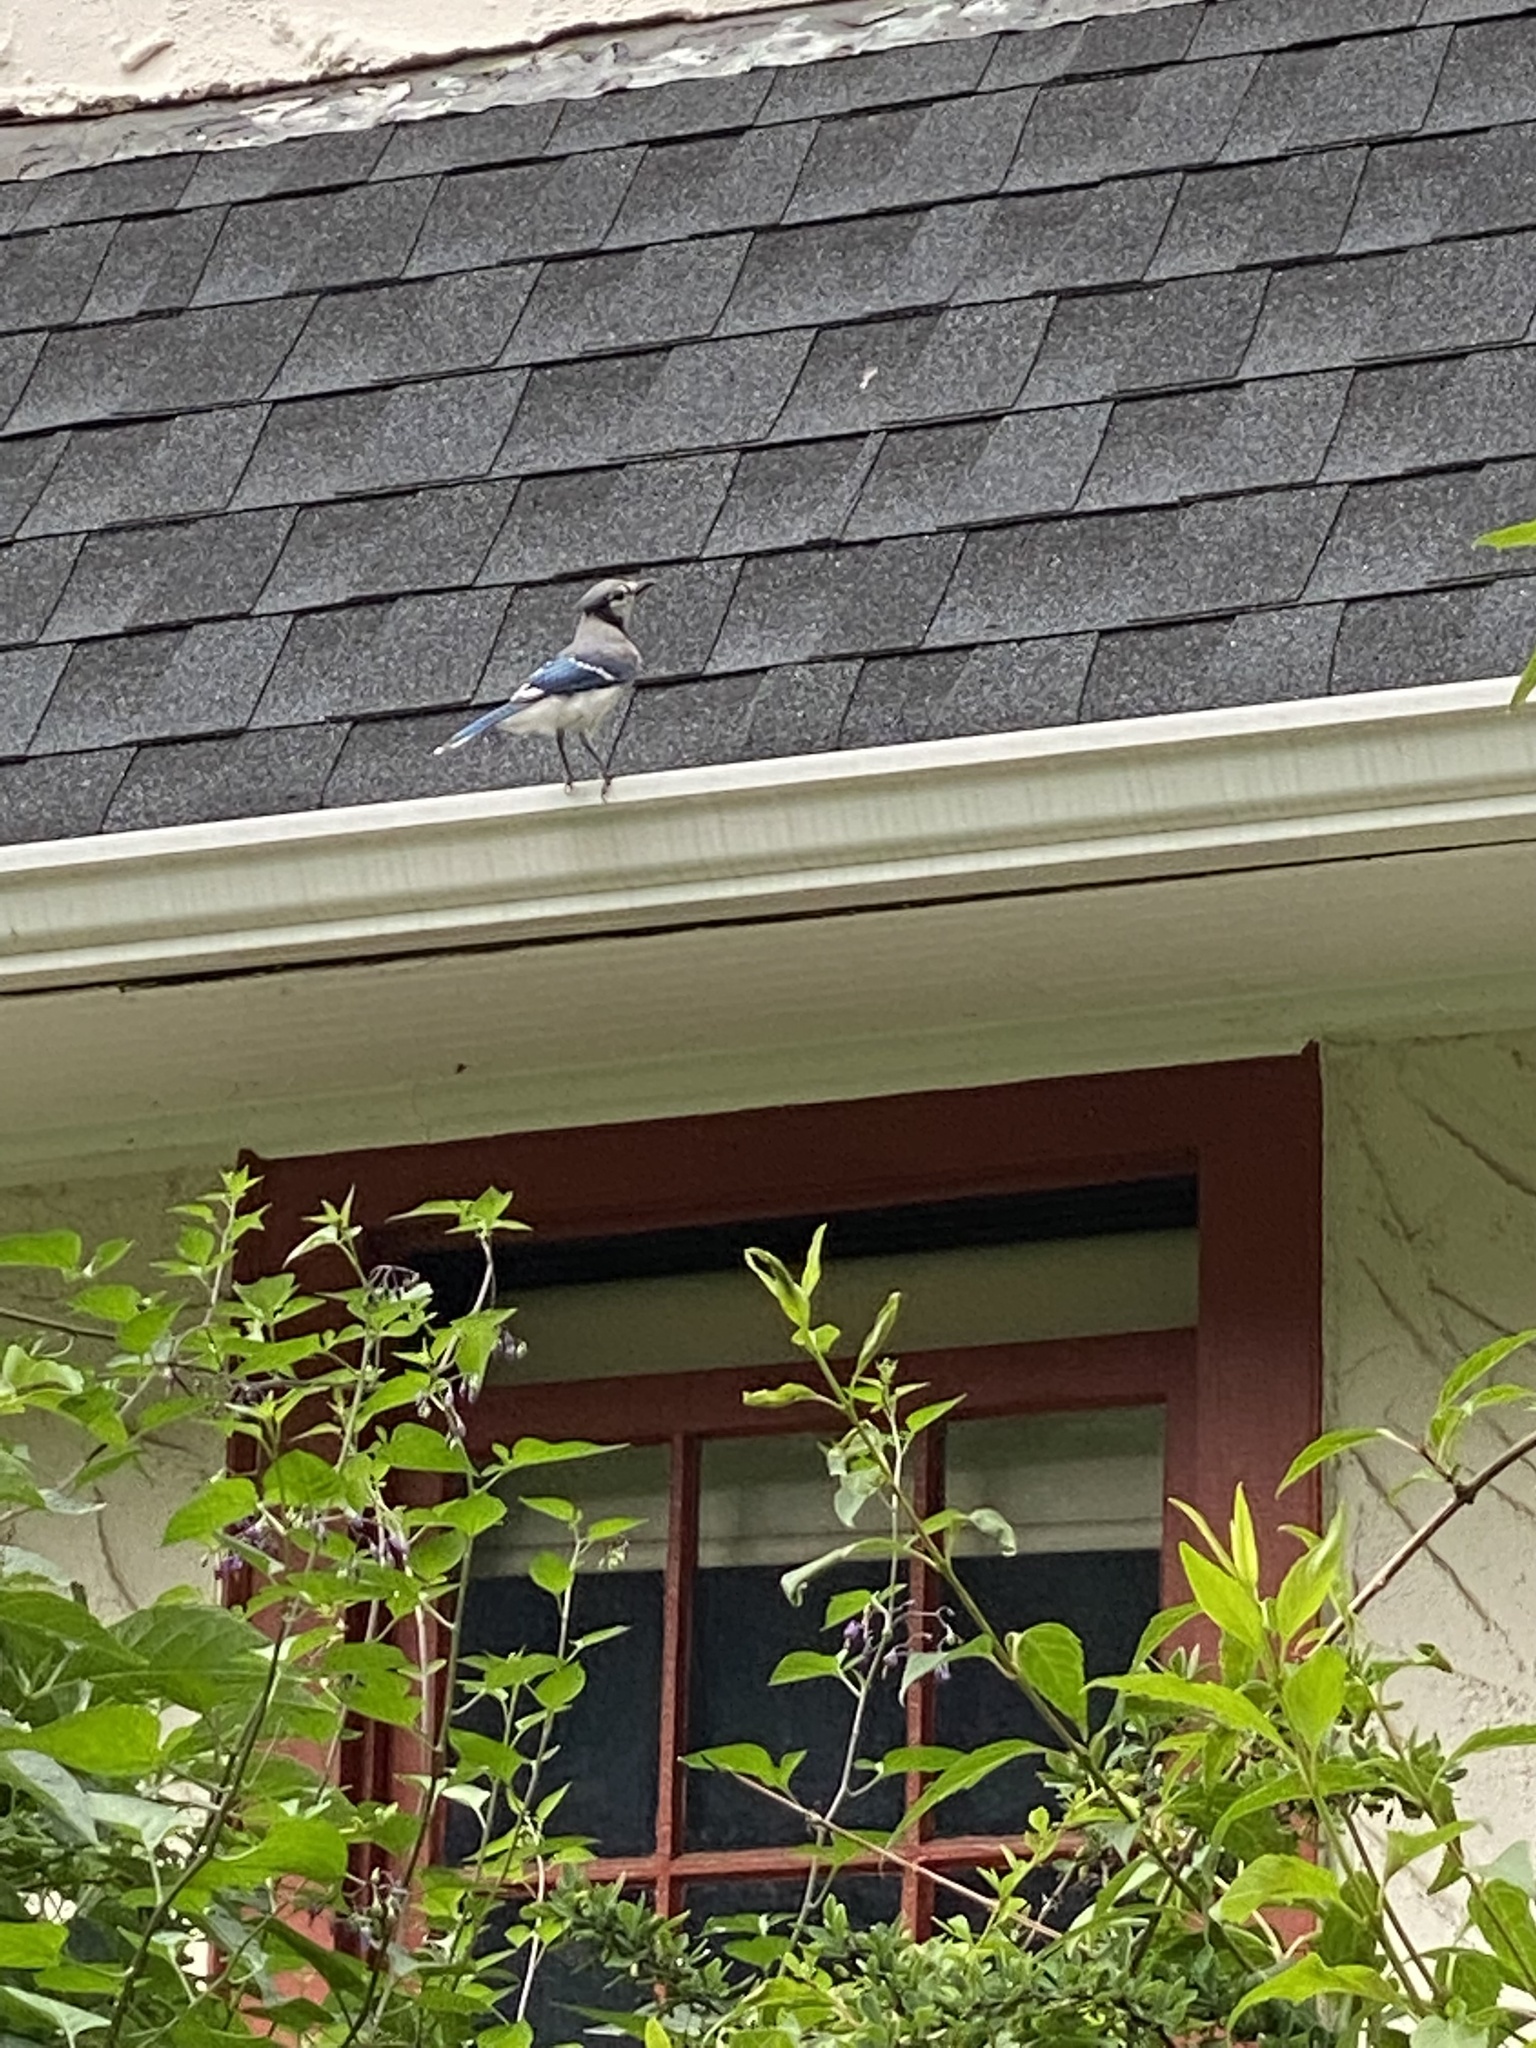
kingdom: Animalia
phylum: Chordata
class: Aves
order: Passeriformes
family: Corvidae
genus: Cyanocitta
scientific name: Cyanocitta cristata
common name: Blue jay
